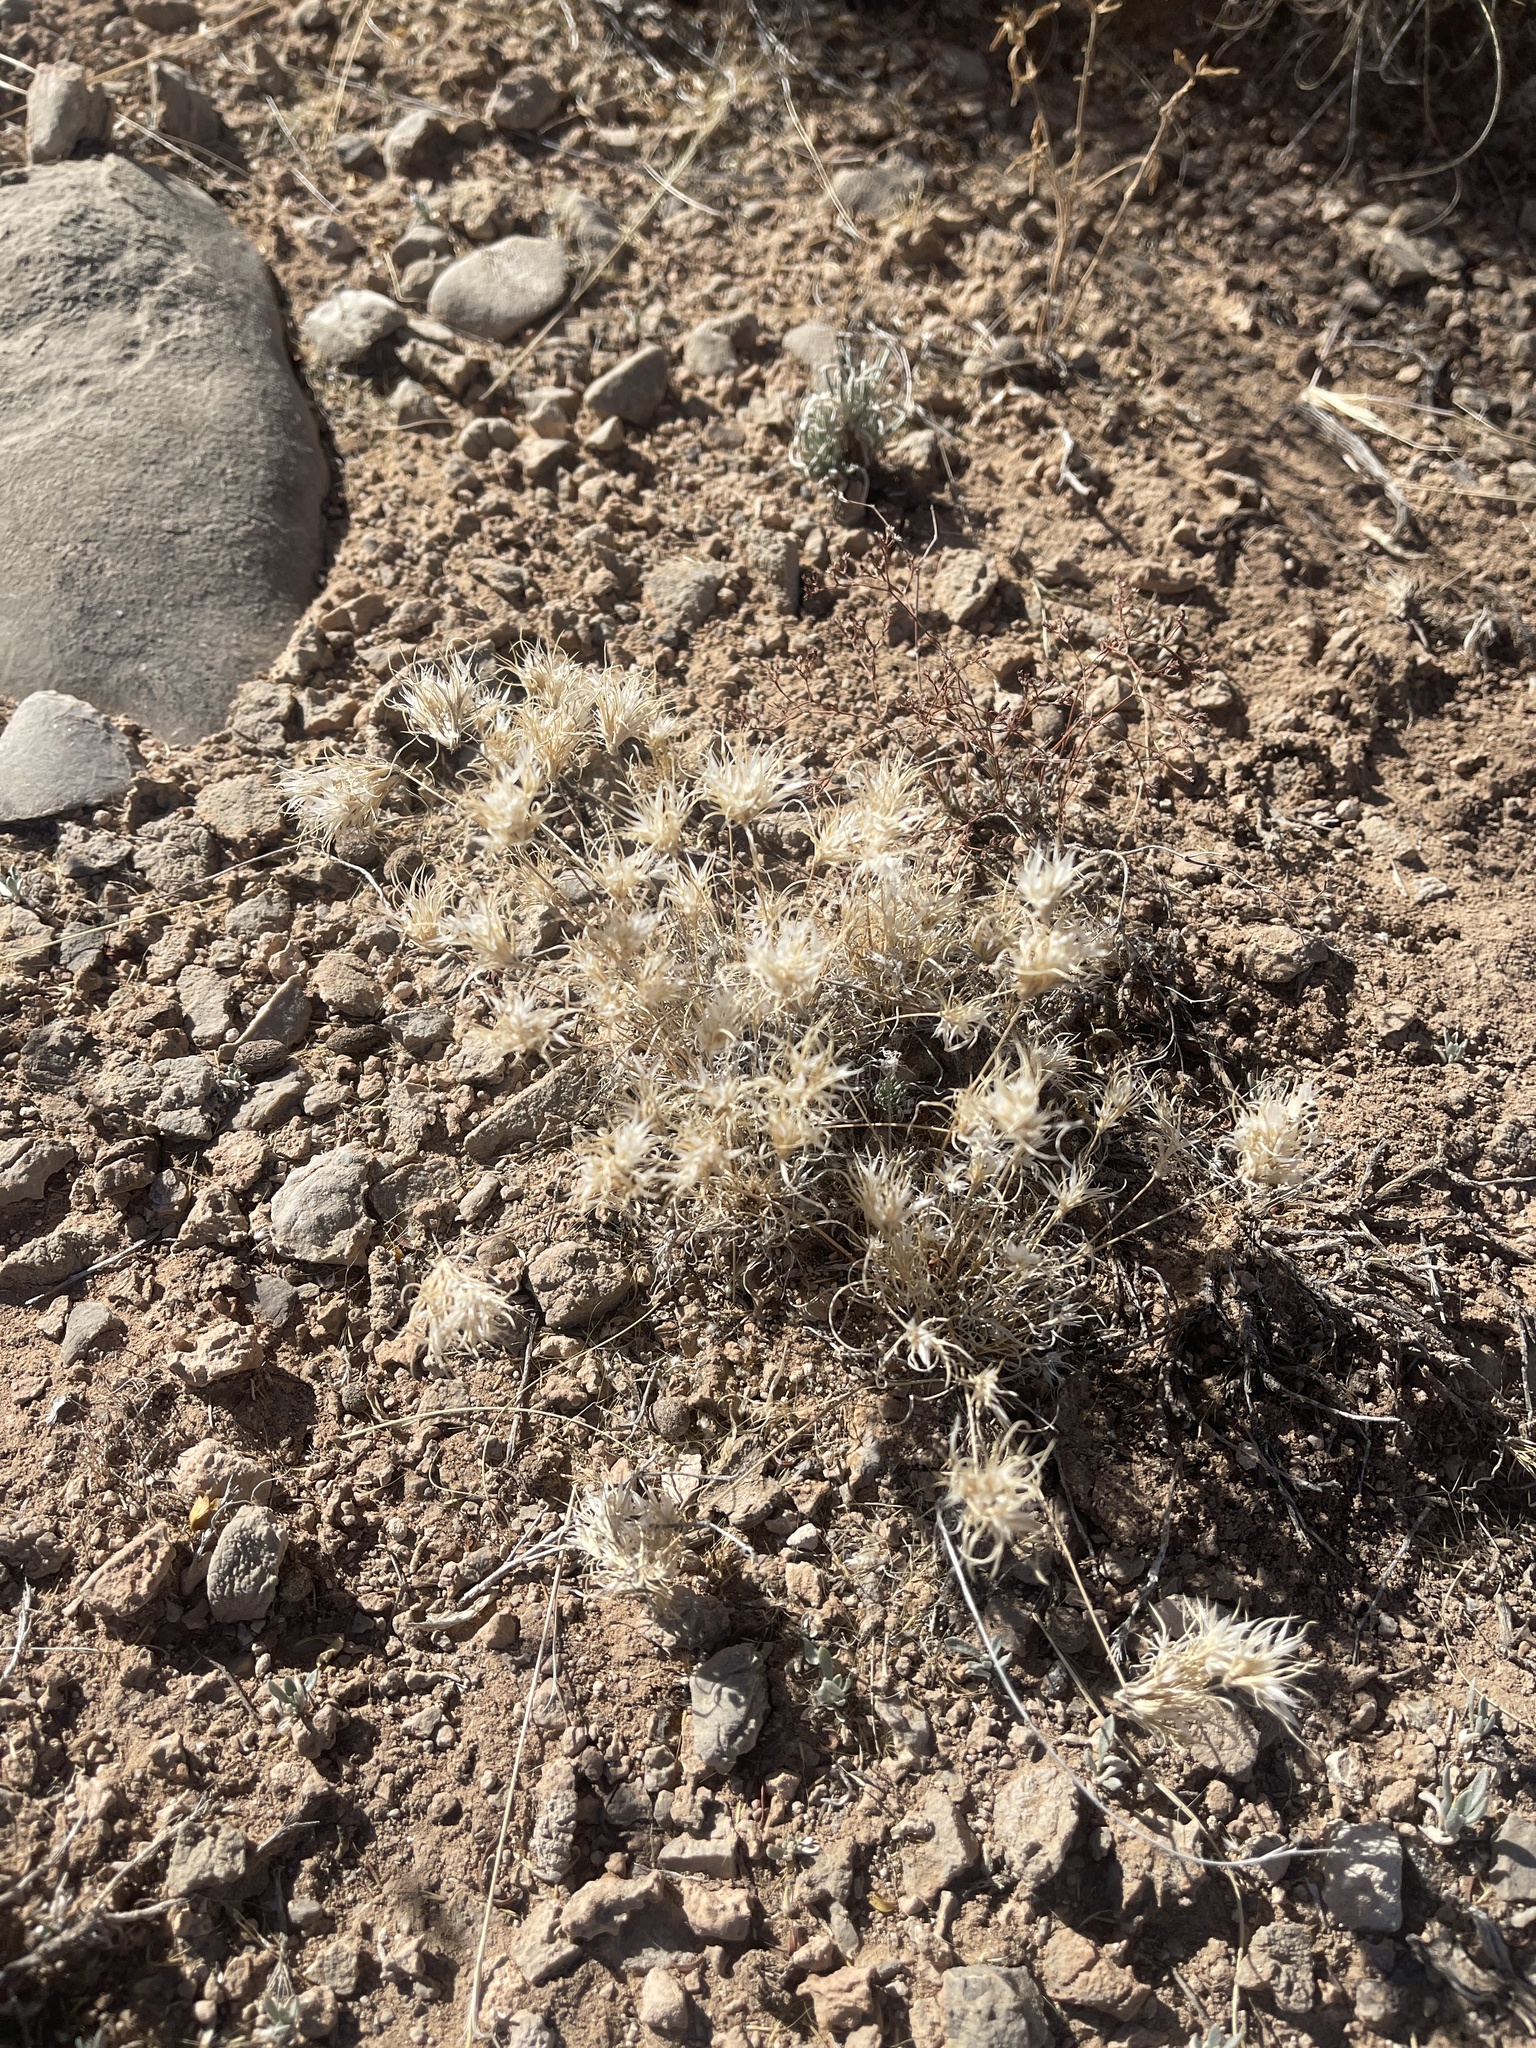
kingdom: Plantae
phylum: Tracheophyta
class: Liliopsida
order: Poales
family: Poaceae
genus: Dasyochloa
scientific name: Dasyochloa pulchella
